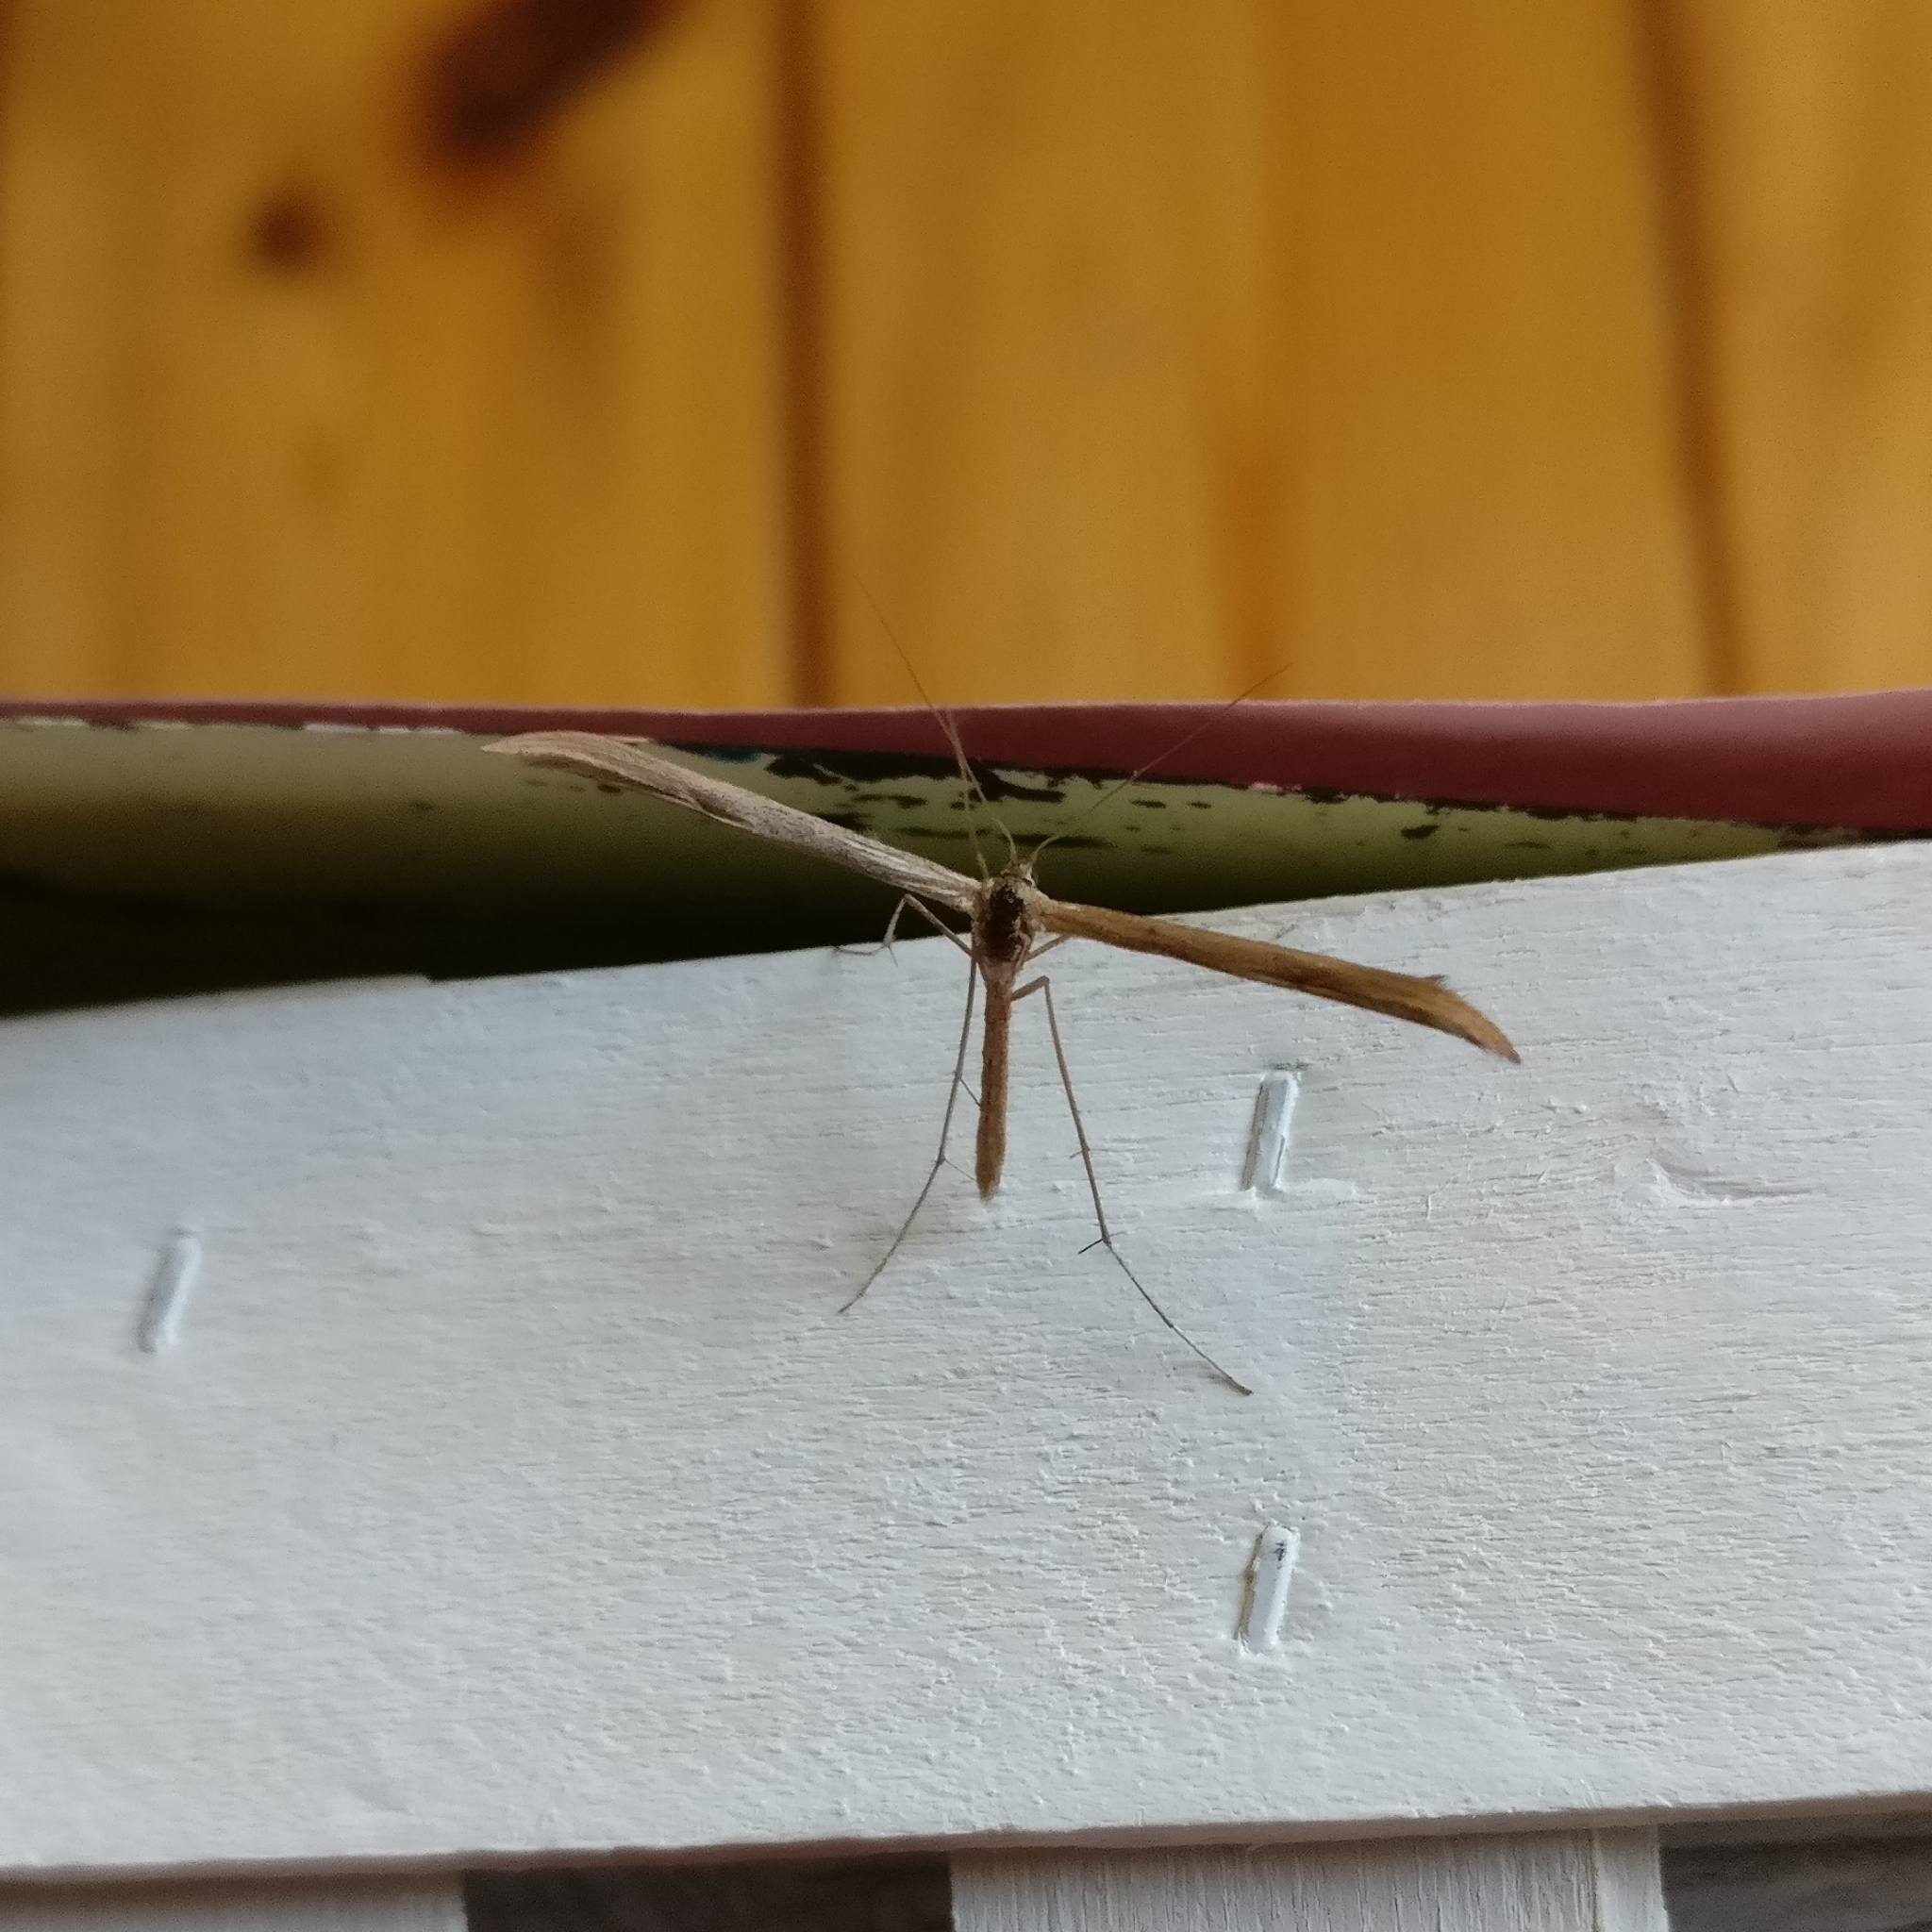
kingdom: Animalia
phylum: Arthropoda
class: Insecta
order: Lepidoptera
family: Pterophoridae
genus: Emmelina
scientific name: Emmelina monodactyla
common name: Common plume
